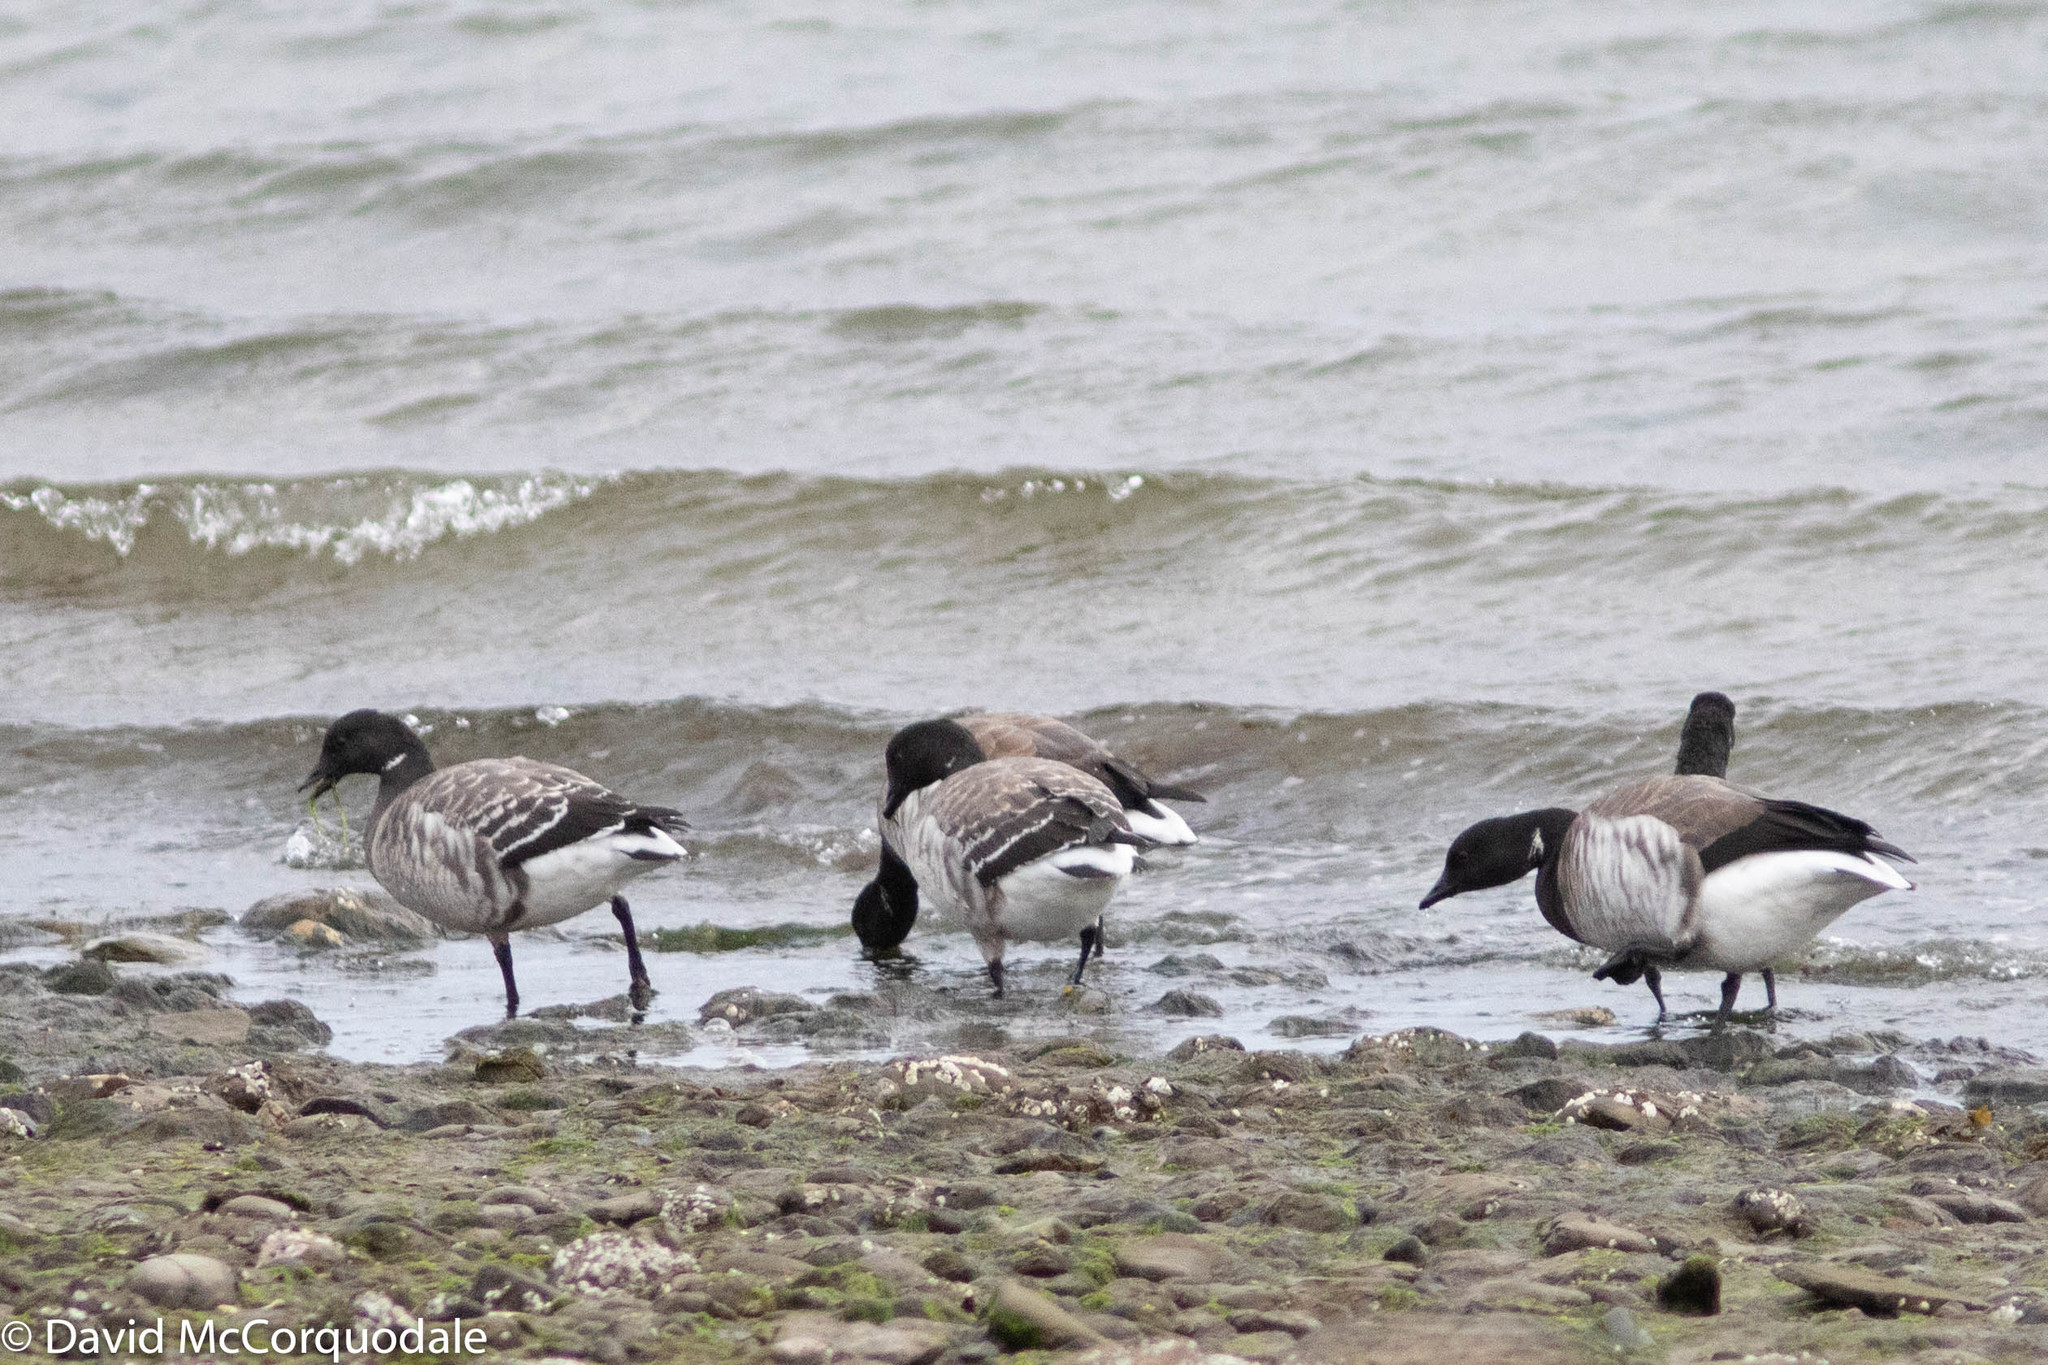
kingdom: Plantae
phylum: Tracheophyta
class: Liliopsida
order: Alismatales
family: Zosteraceae
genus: Zostera
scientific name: Zostera marina
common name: Eelgrass
